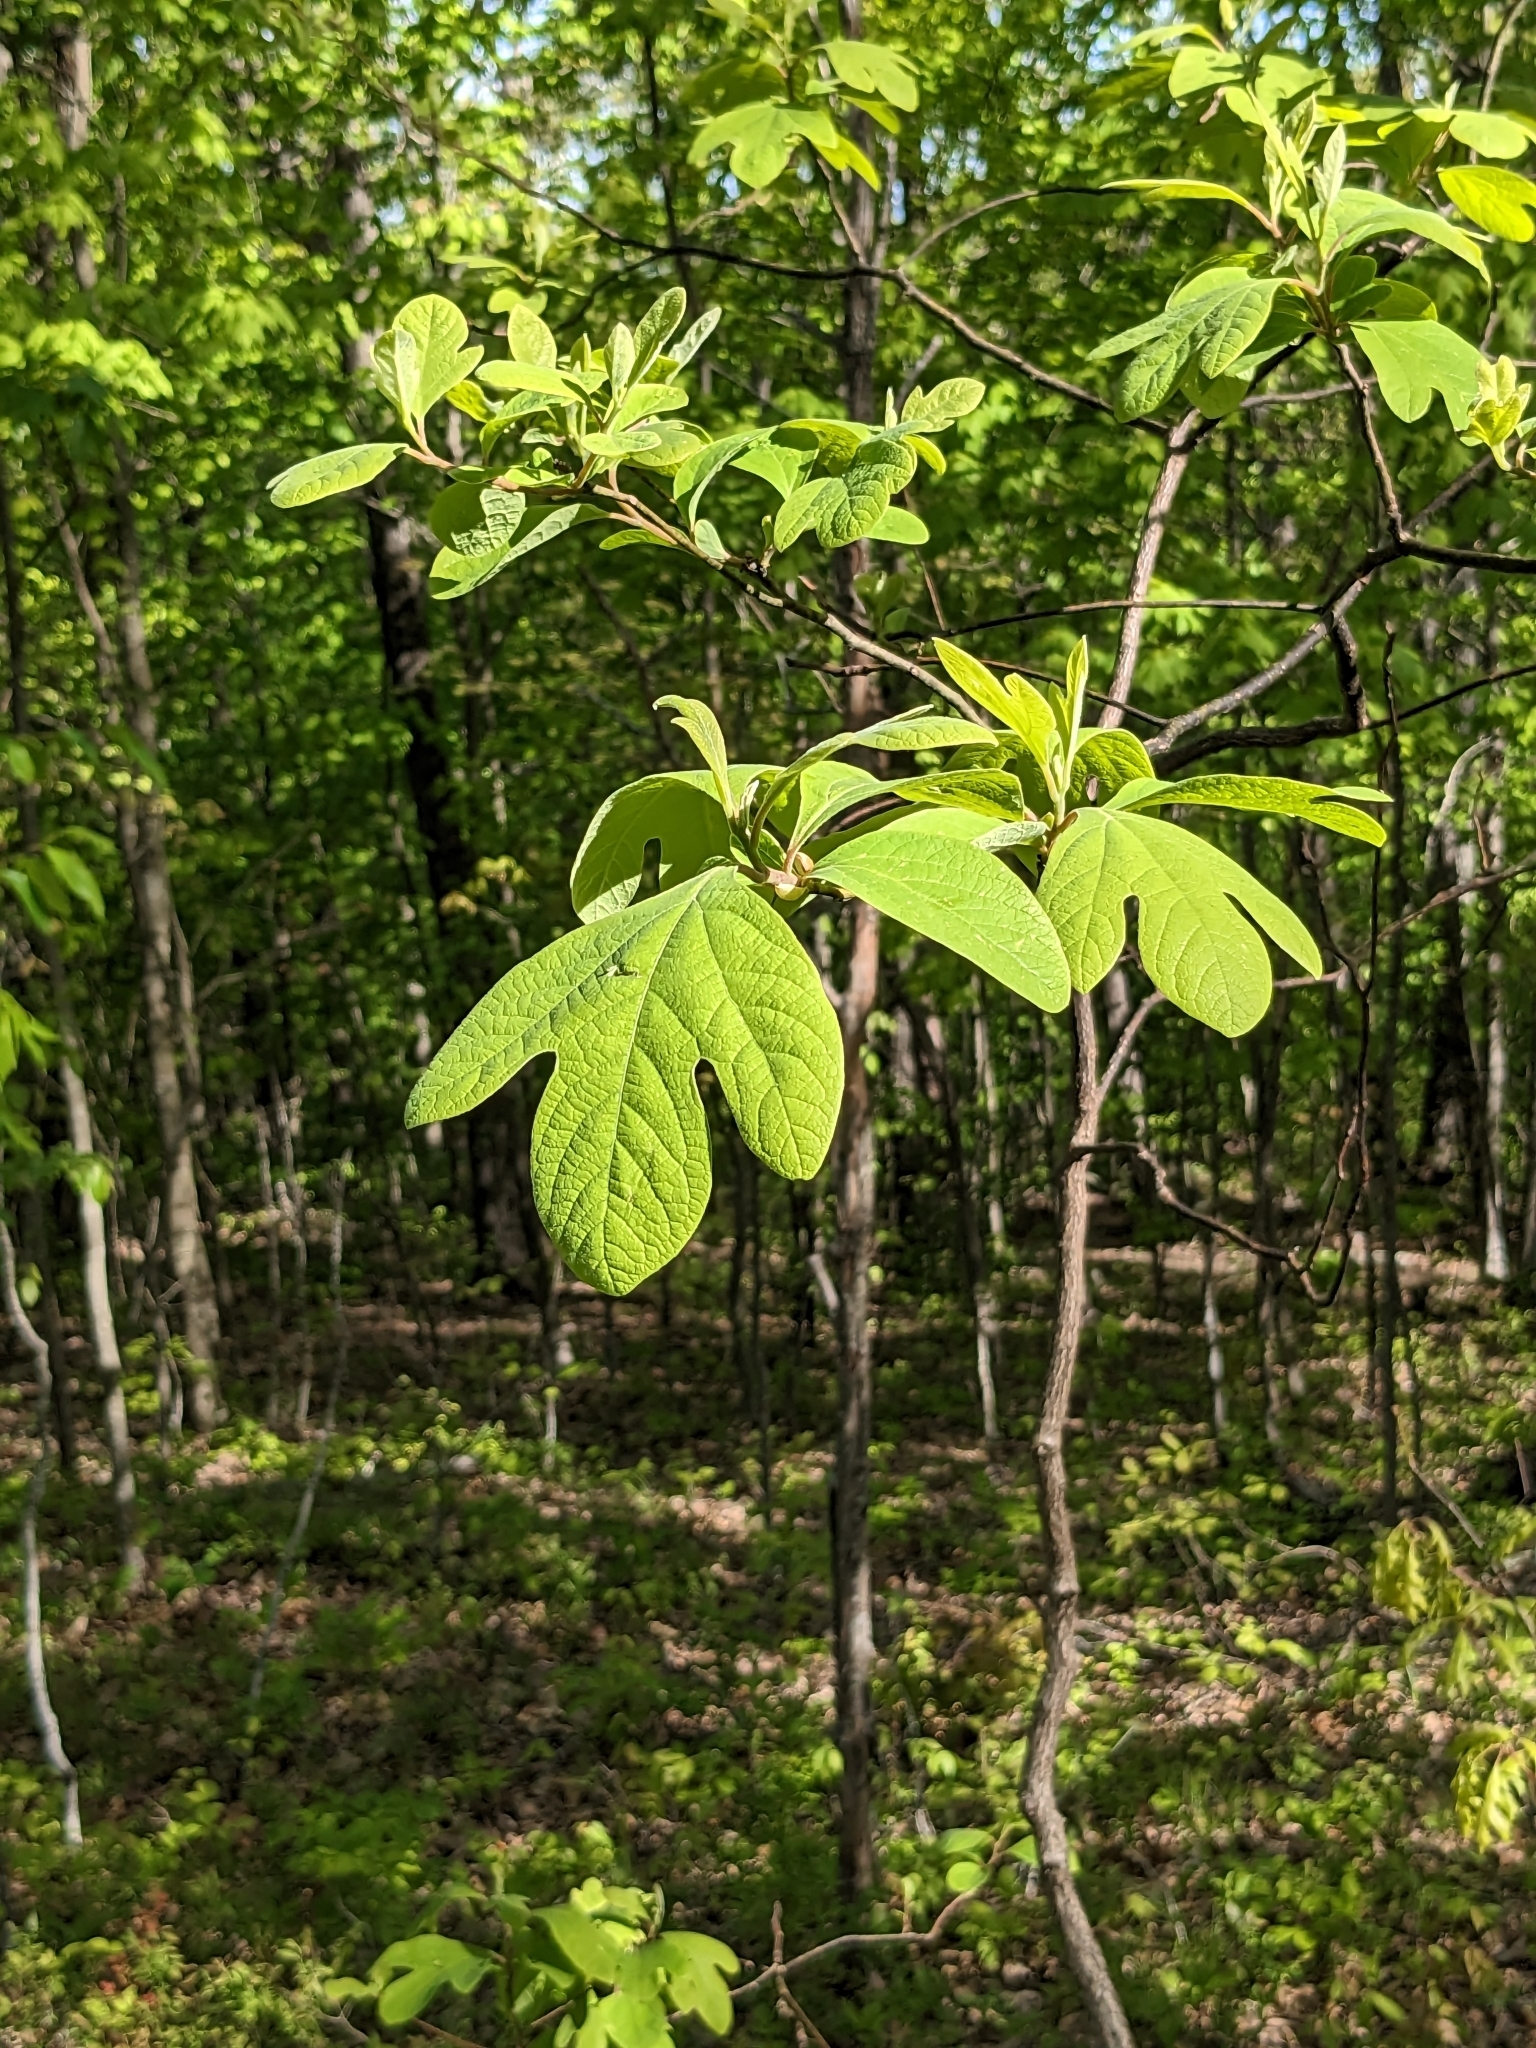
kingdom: Plantae
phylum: Tracheophyta
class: Magnoliopsida
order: Laurales
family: Lauraceae
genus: Sassafras
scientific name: Sassafras albidum
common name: Sassafras
